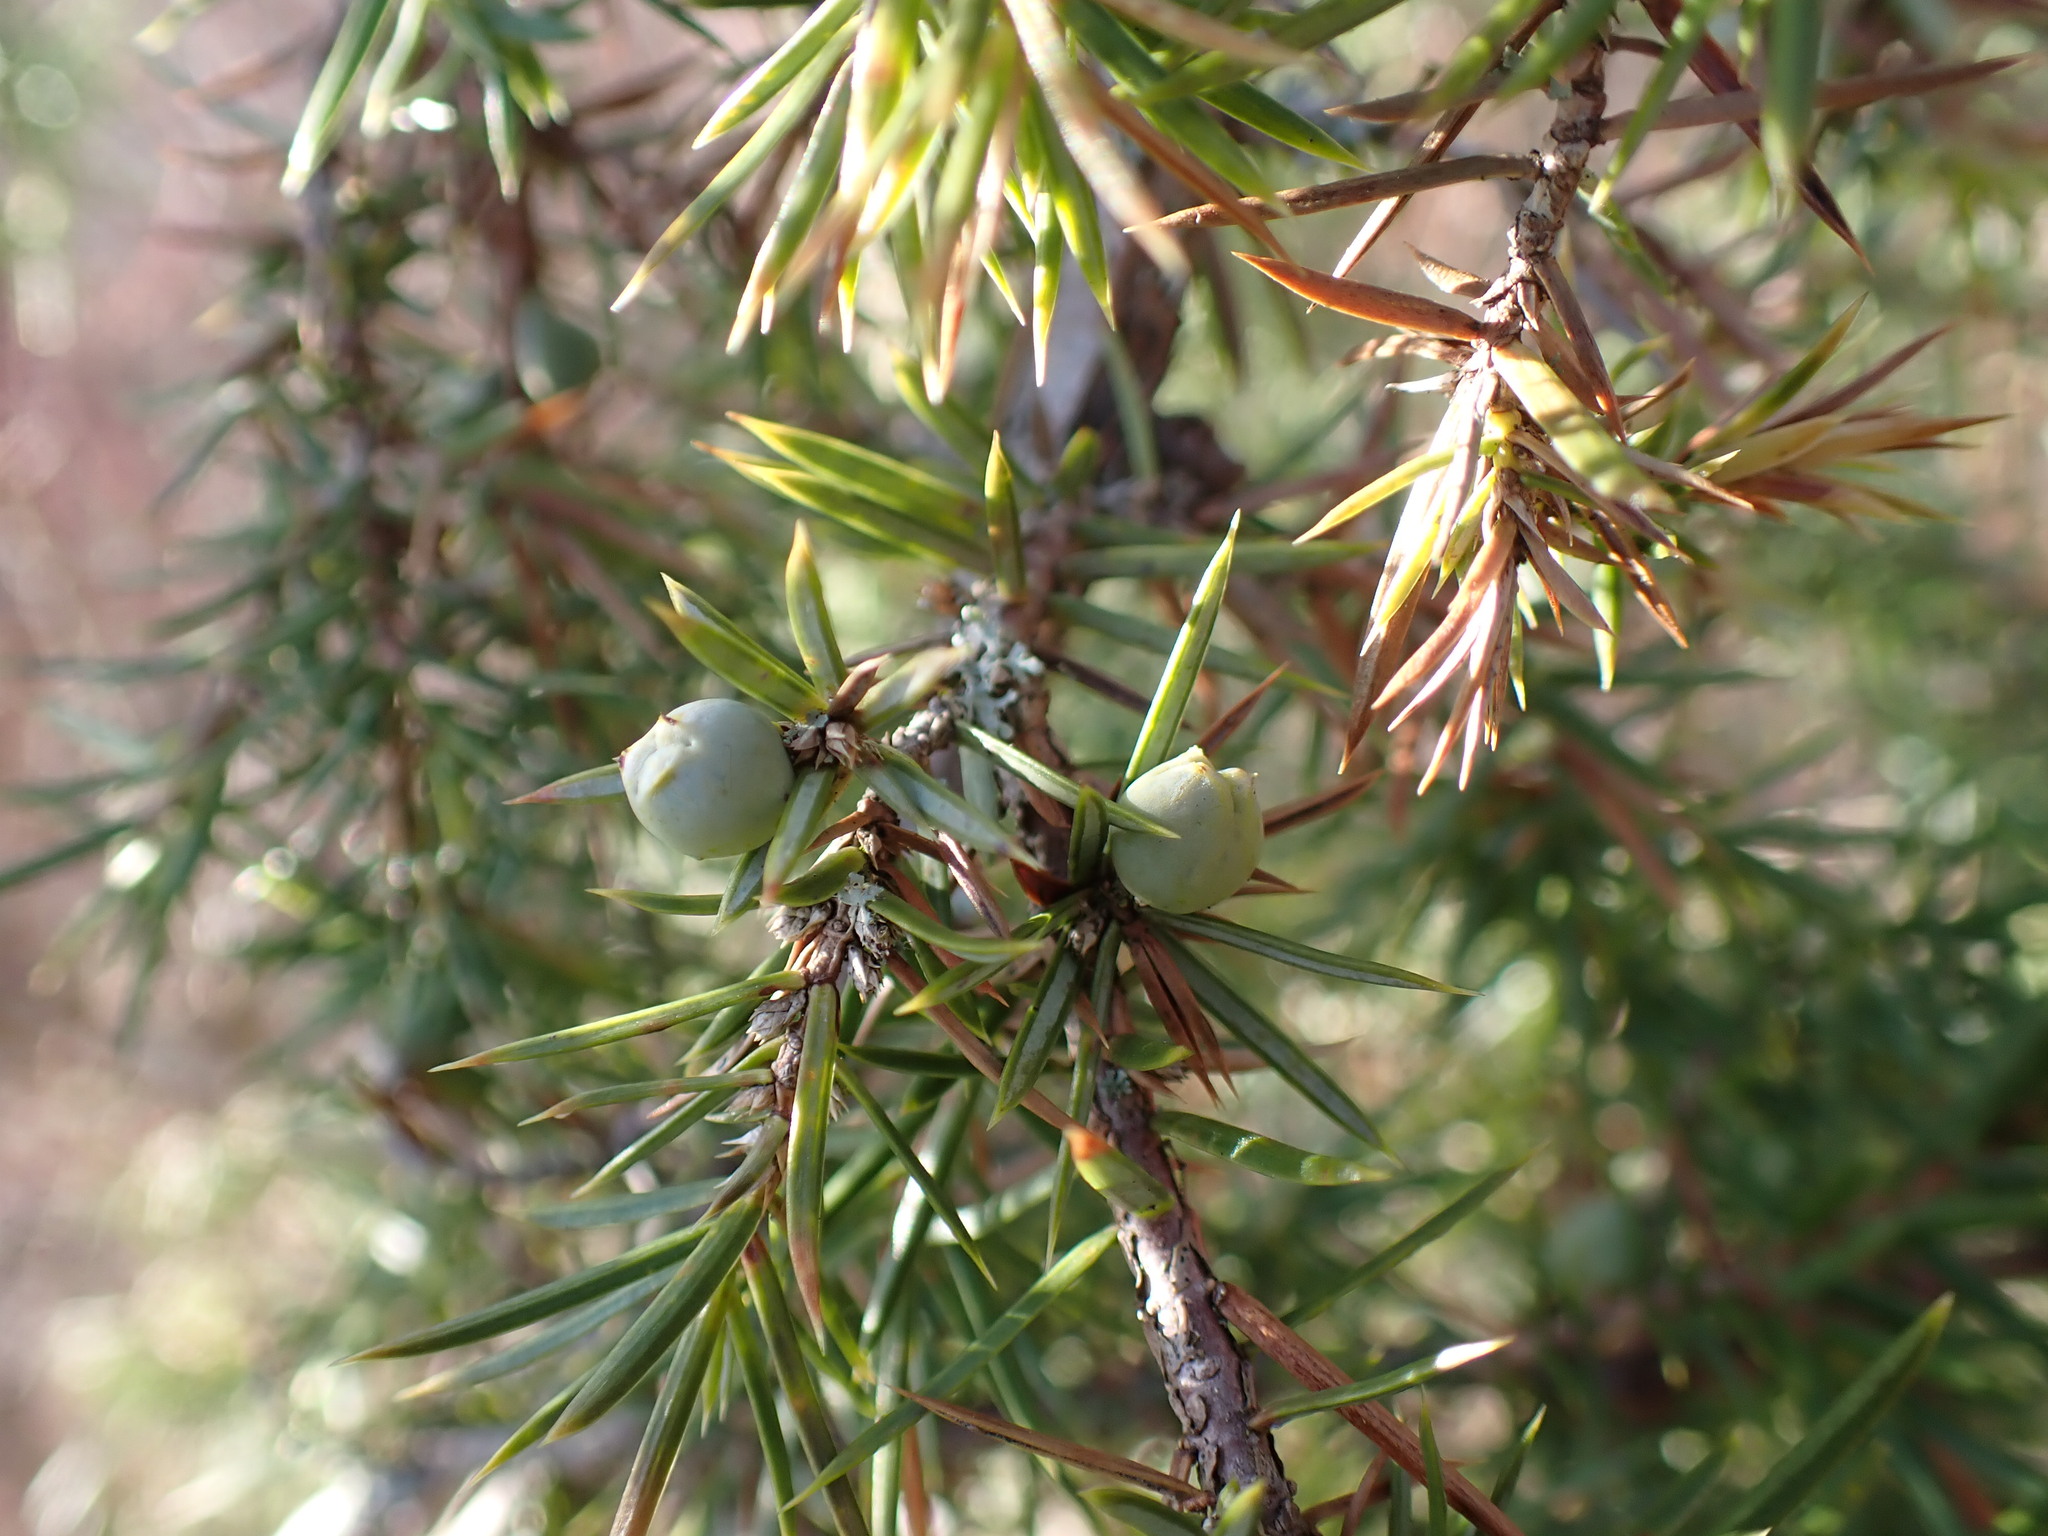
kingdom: Plantae
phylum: Tracheophyta
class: Pinopsida
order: Pinales
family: Cupressaceae
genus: Juniperus
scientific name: Juniperus communis
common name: Common juniper
